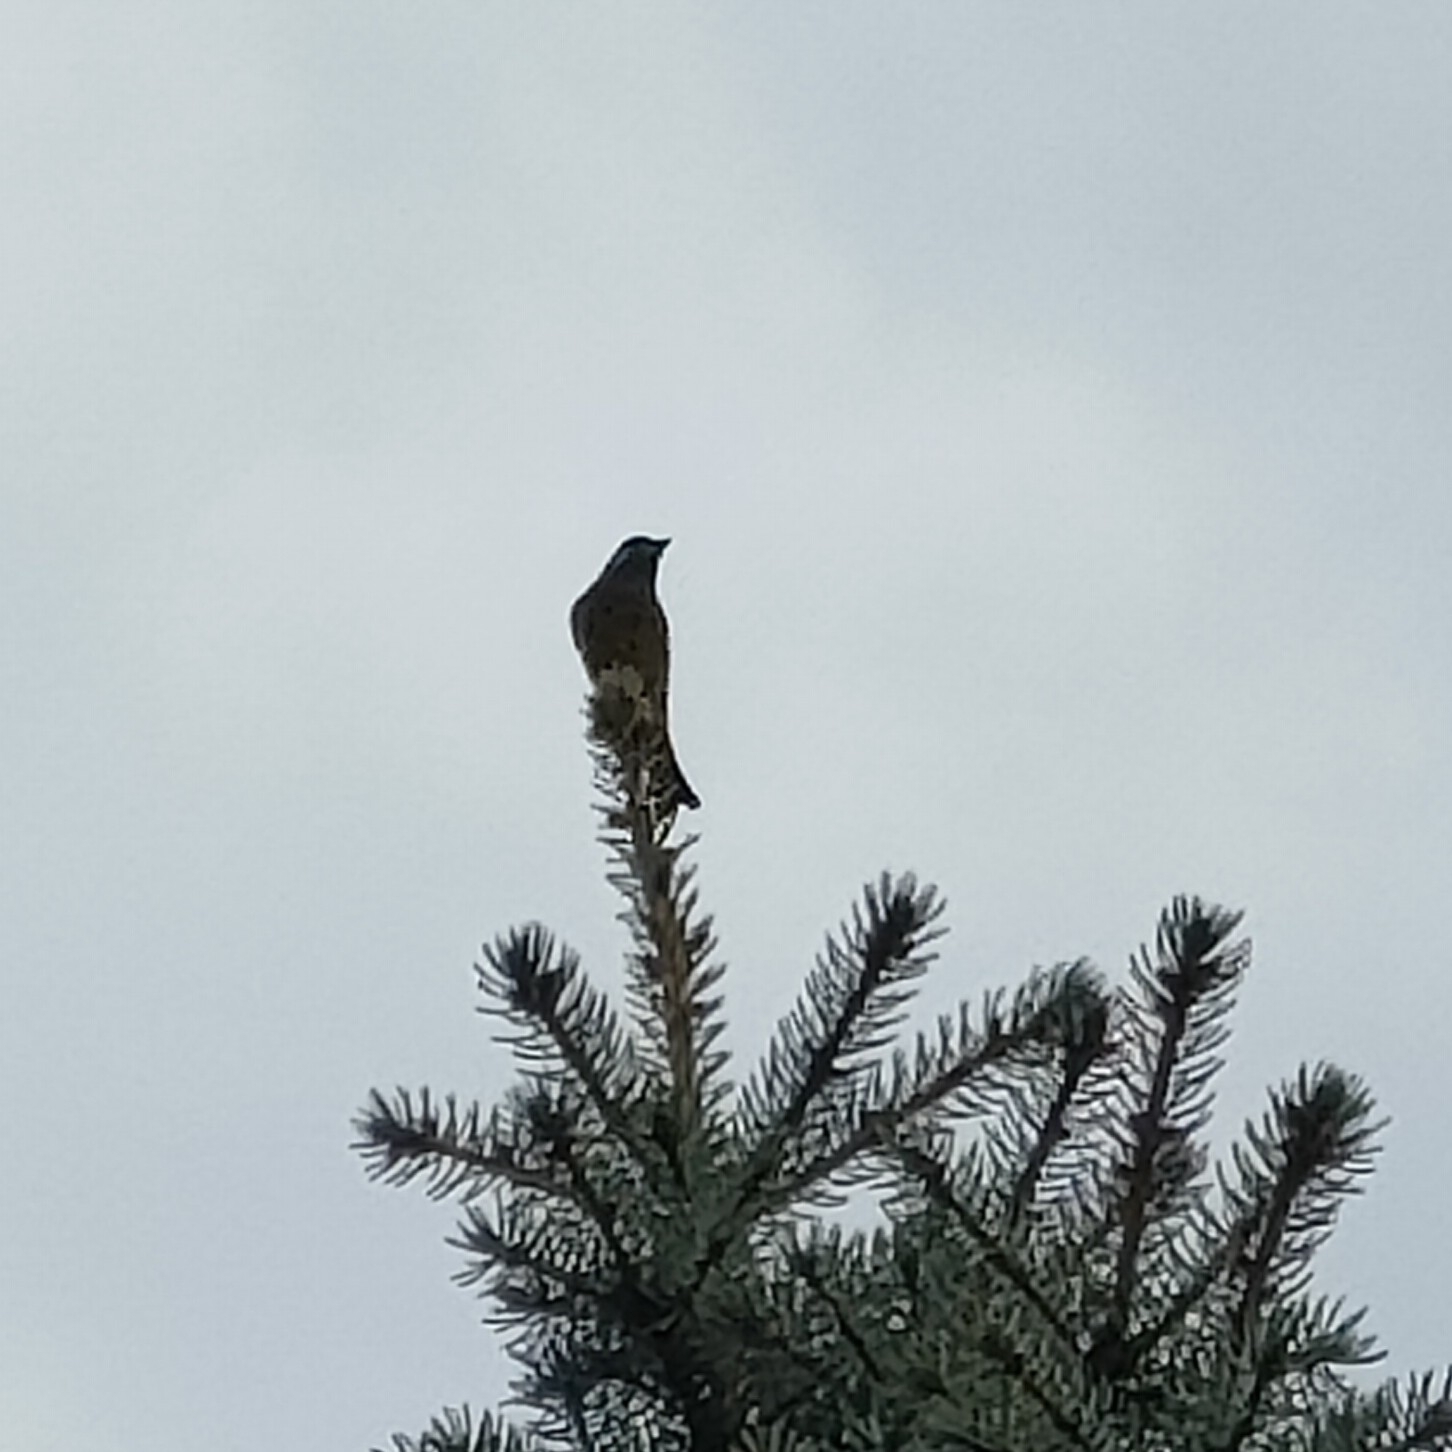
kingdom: Plantae
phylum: Tracheophyta
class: Liliopsida
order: Poales
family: Poaceae
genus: Chloris
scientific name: Chloris chloris
